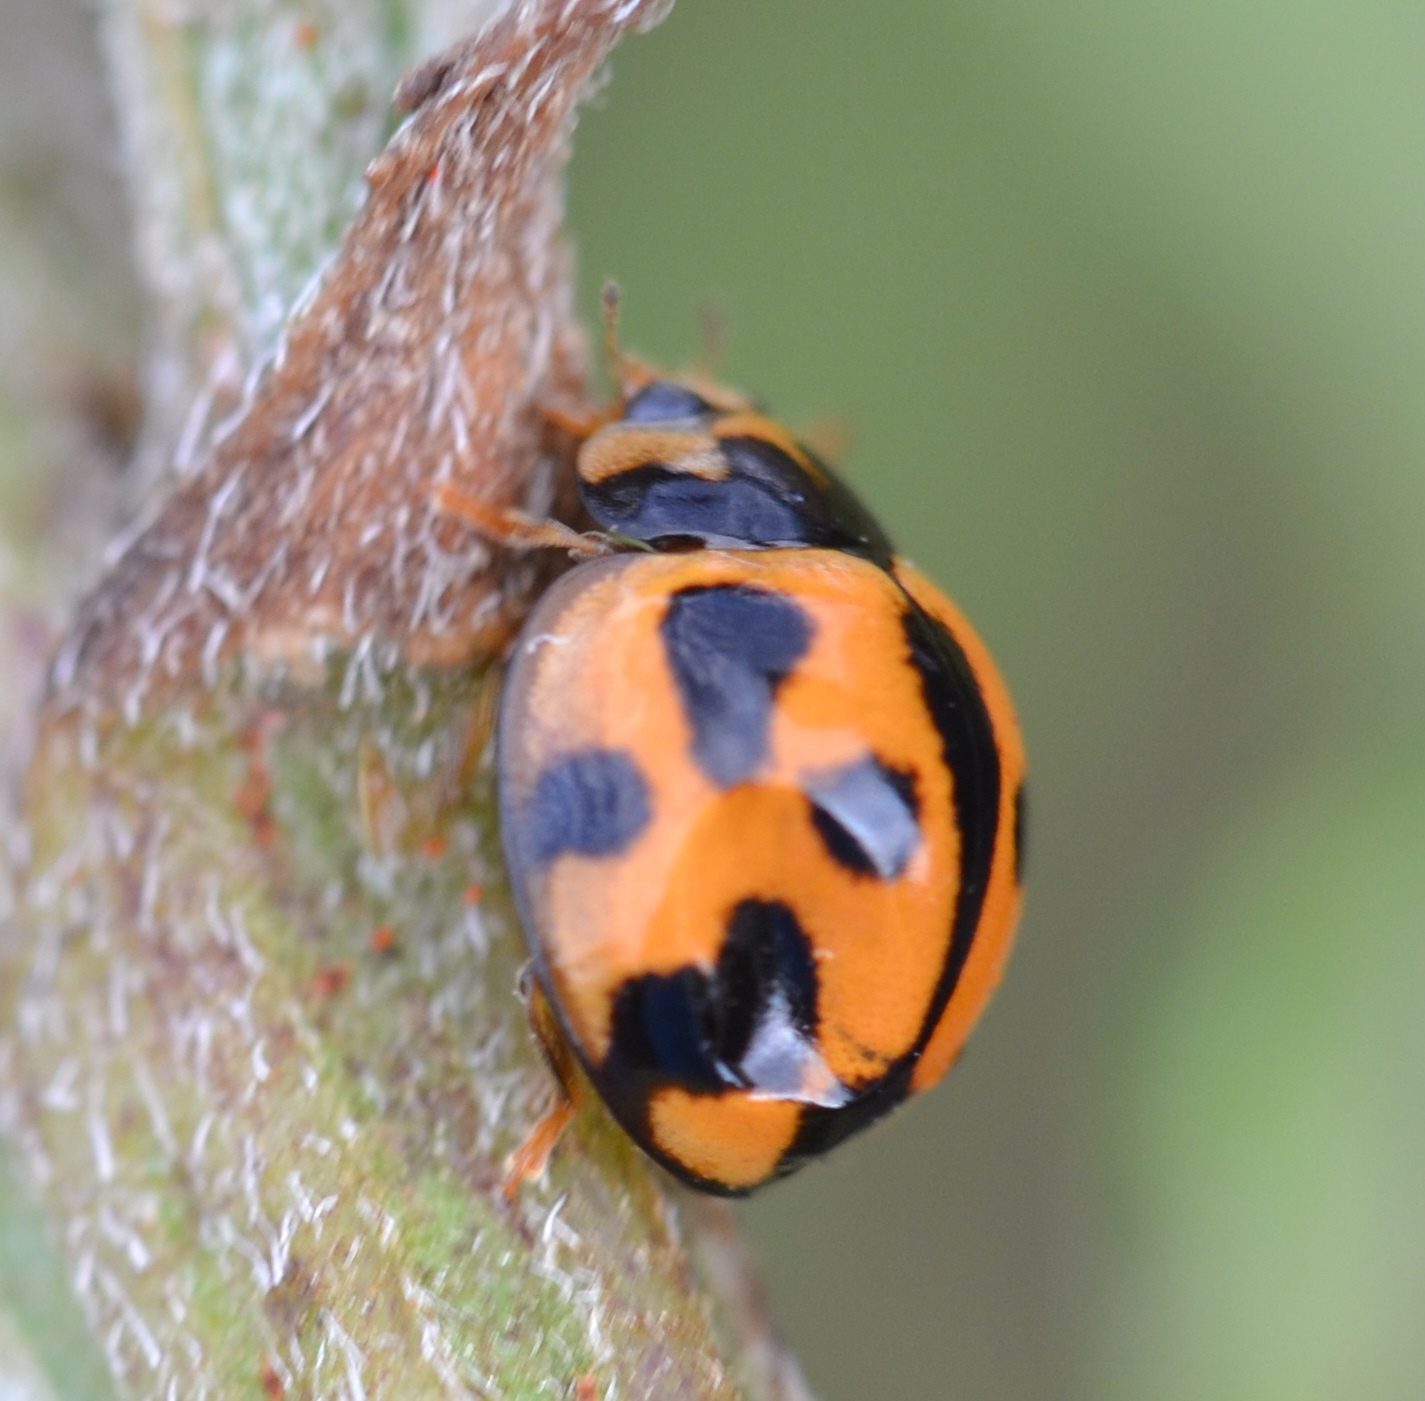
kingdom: Animalia
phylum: Arthropoda
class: Insecta
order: Coleoptera
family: Coccinellidae
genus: Coelophora
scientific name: Coelophora inaequalis
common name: Common australian lady beetle
